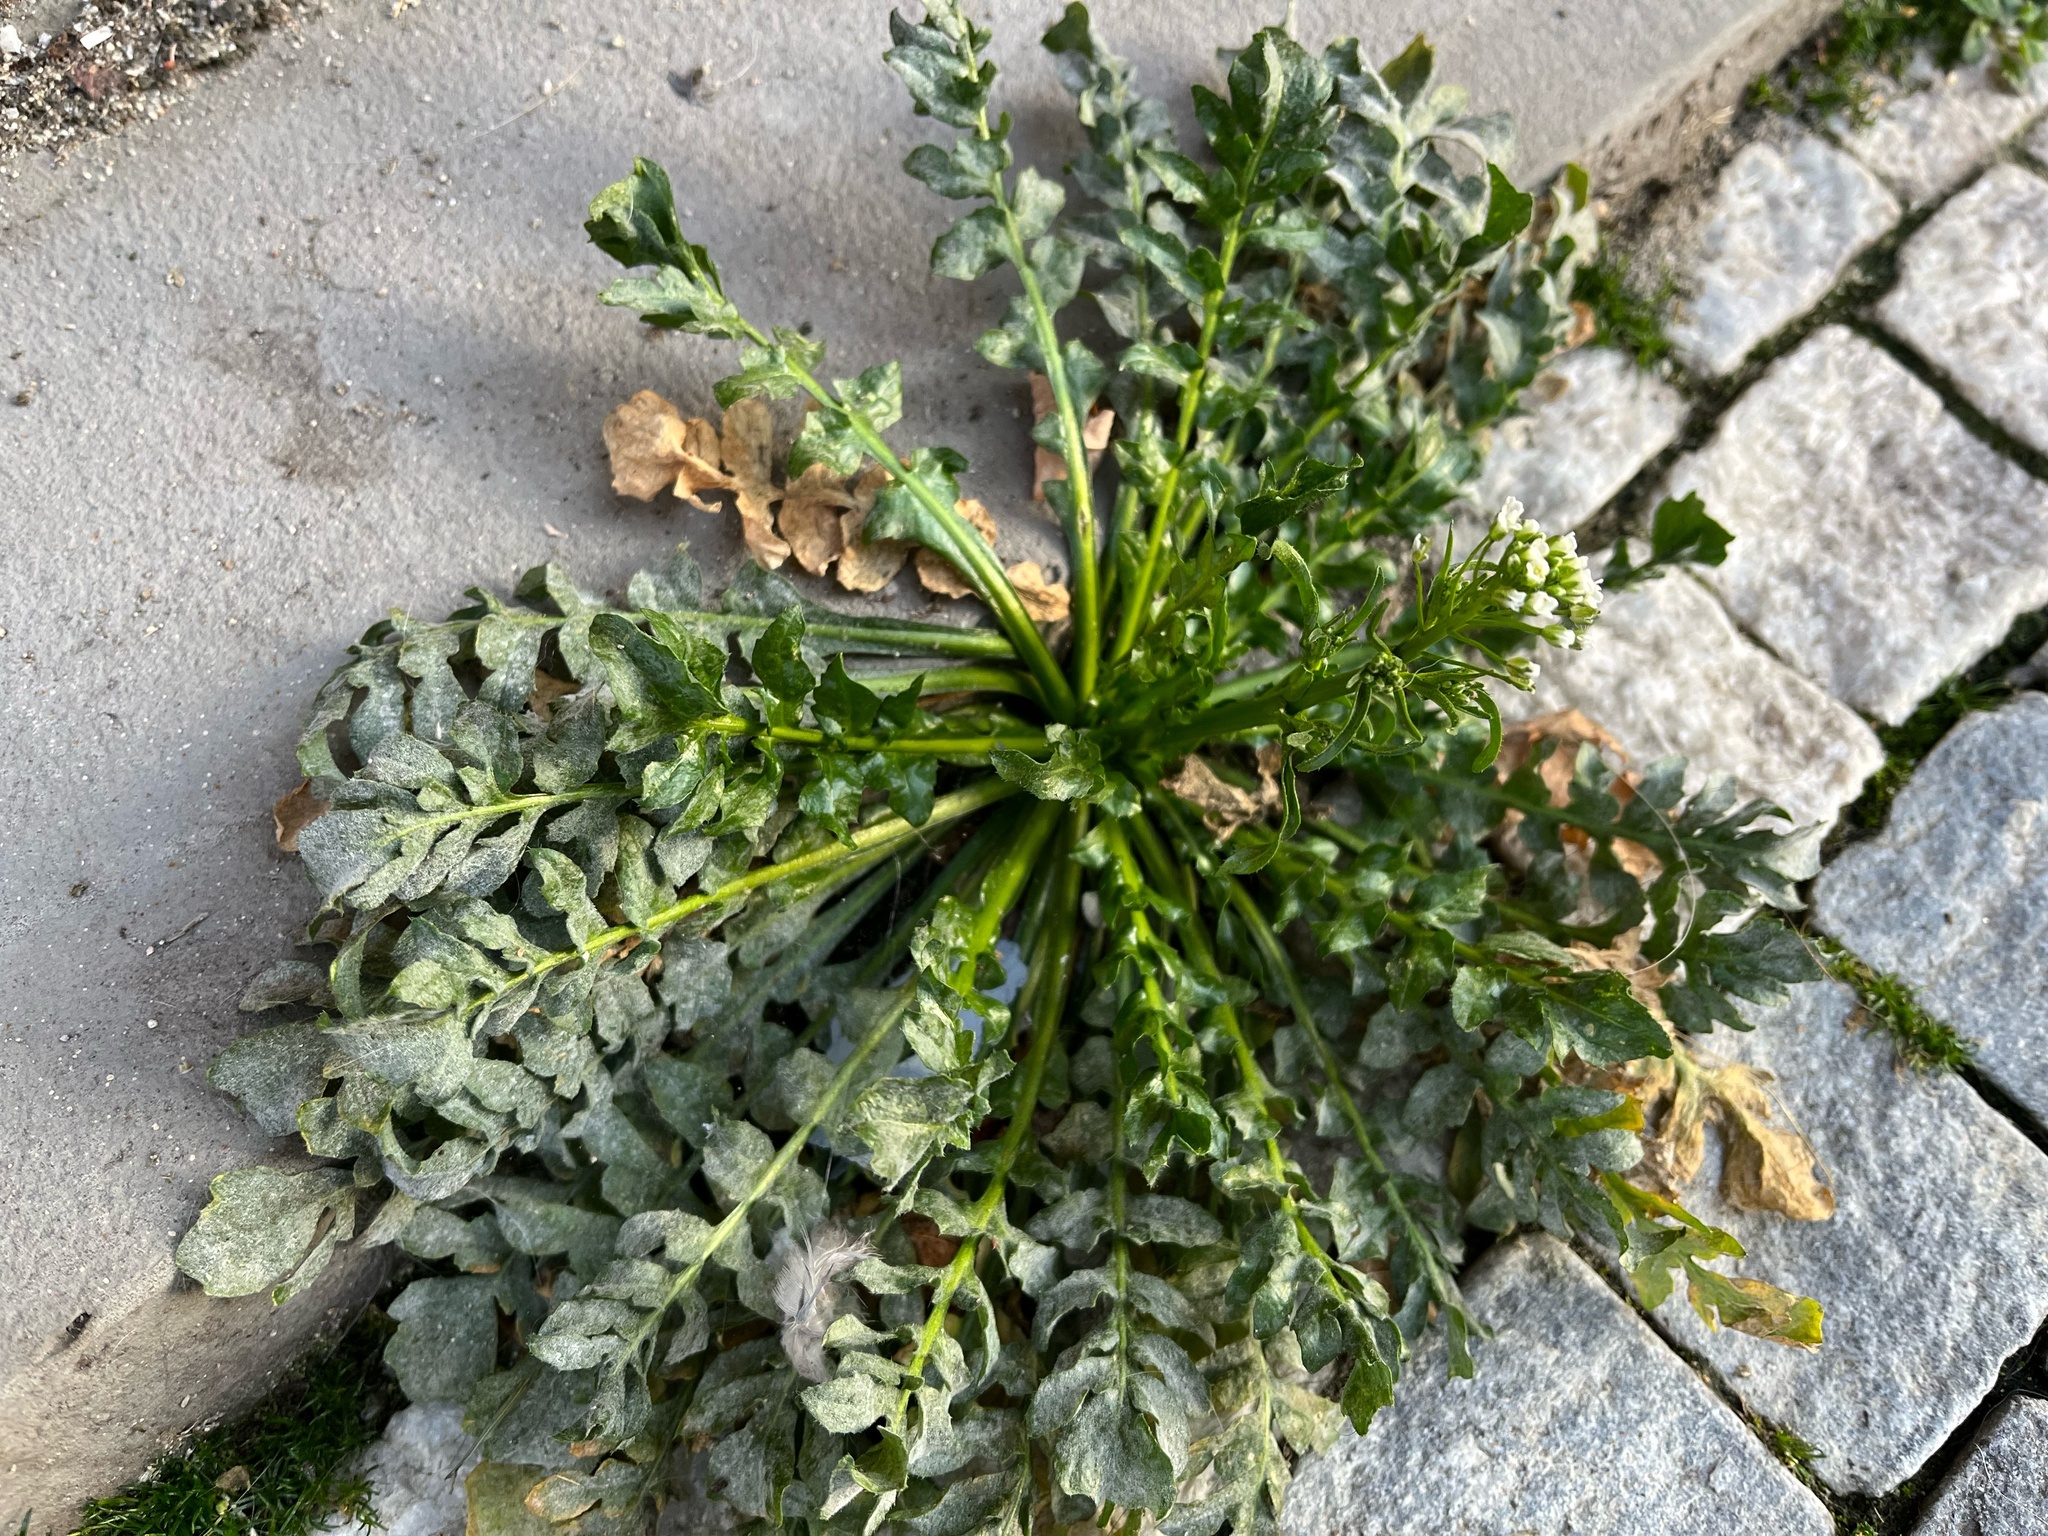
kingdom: Plantae
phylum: Tracheophyta
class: Magnoliopsida
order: Brassicales
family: Brassicaceae
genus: Capsella
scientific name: Capsella bursa-pastoris
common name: Shepherd's purse
